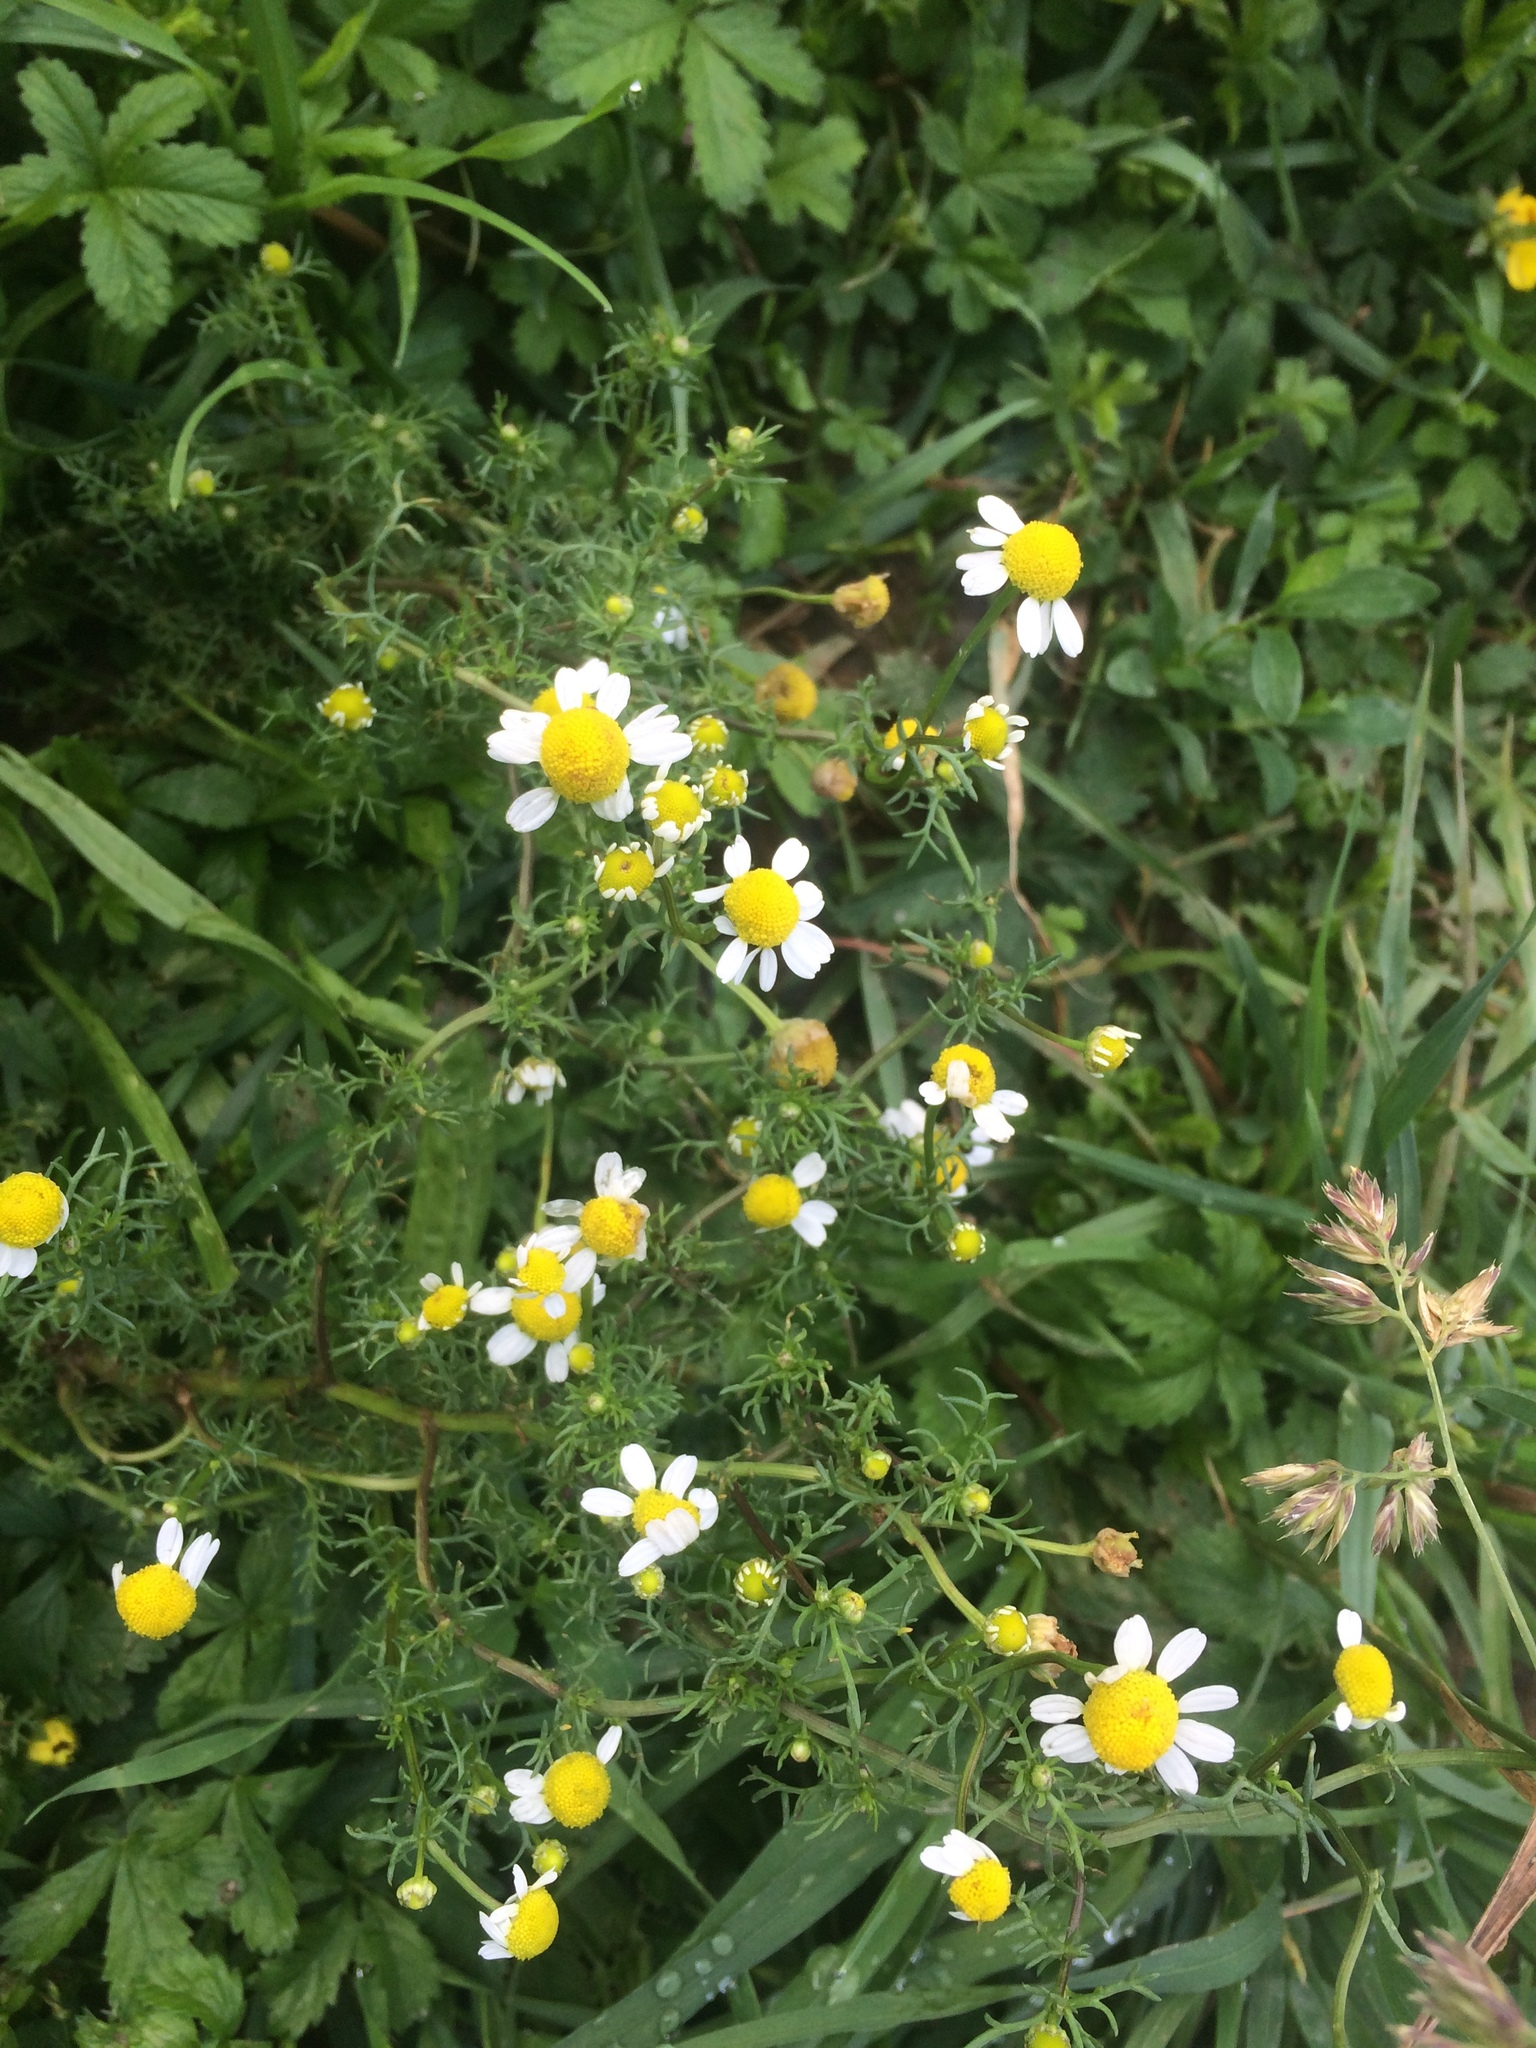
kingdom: Plantae
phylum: Tracheophyta
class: Magnoliopsida
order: Asterales
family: Asteraceae
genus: Matricaria
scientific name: Matricaria chamomilla
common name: Scented mayweed
